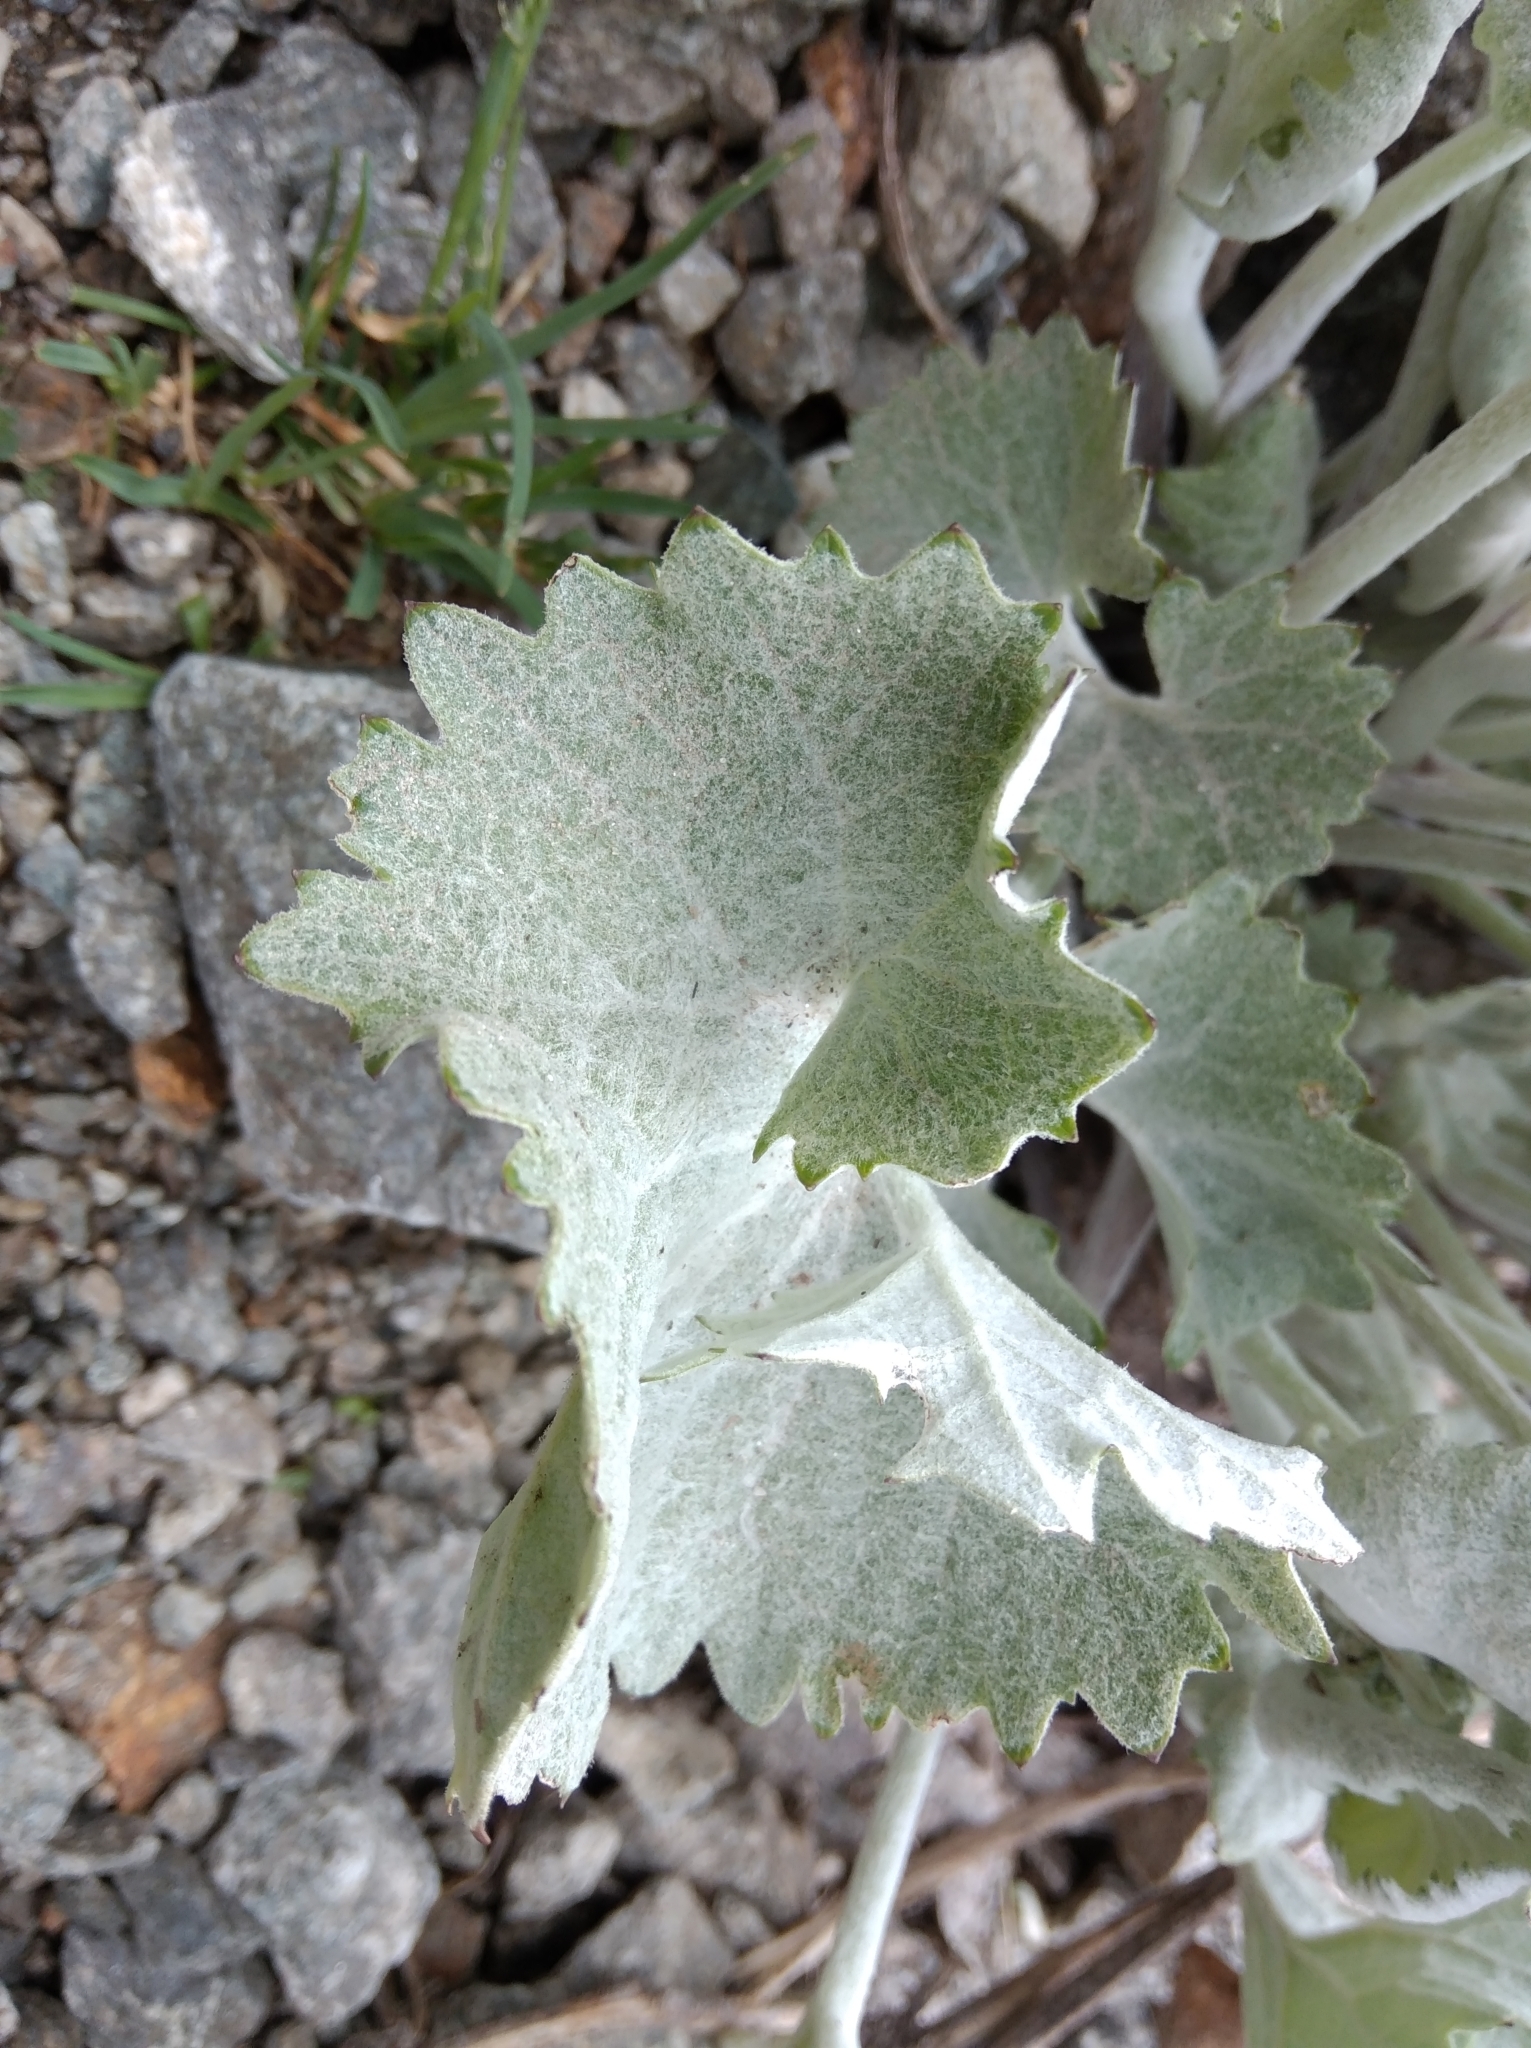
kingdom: Plantae
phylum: Tracheophyta
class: Magnoliopsida
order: Asterales
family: Asteraceae
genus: Adenostyles
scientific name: Adenostyles leucophylla
